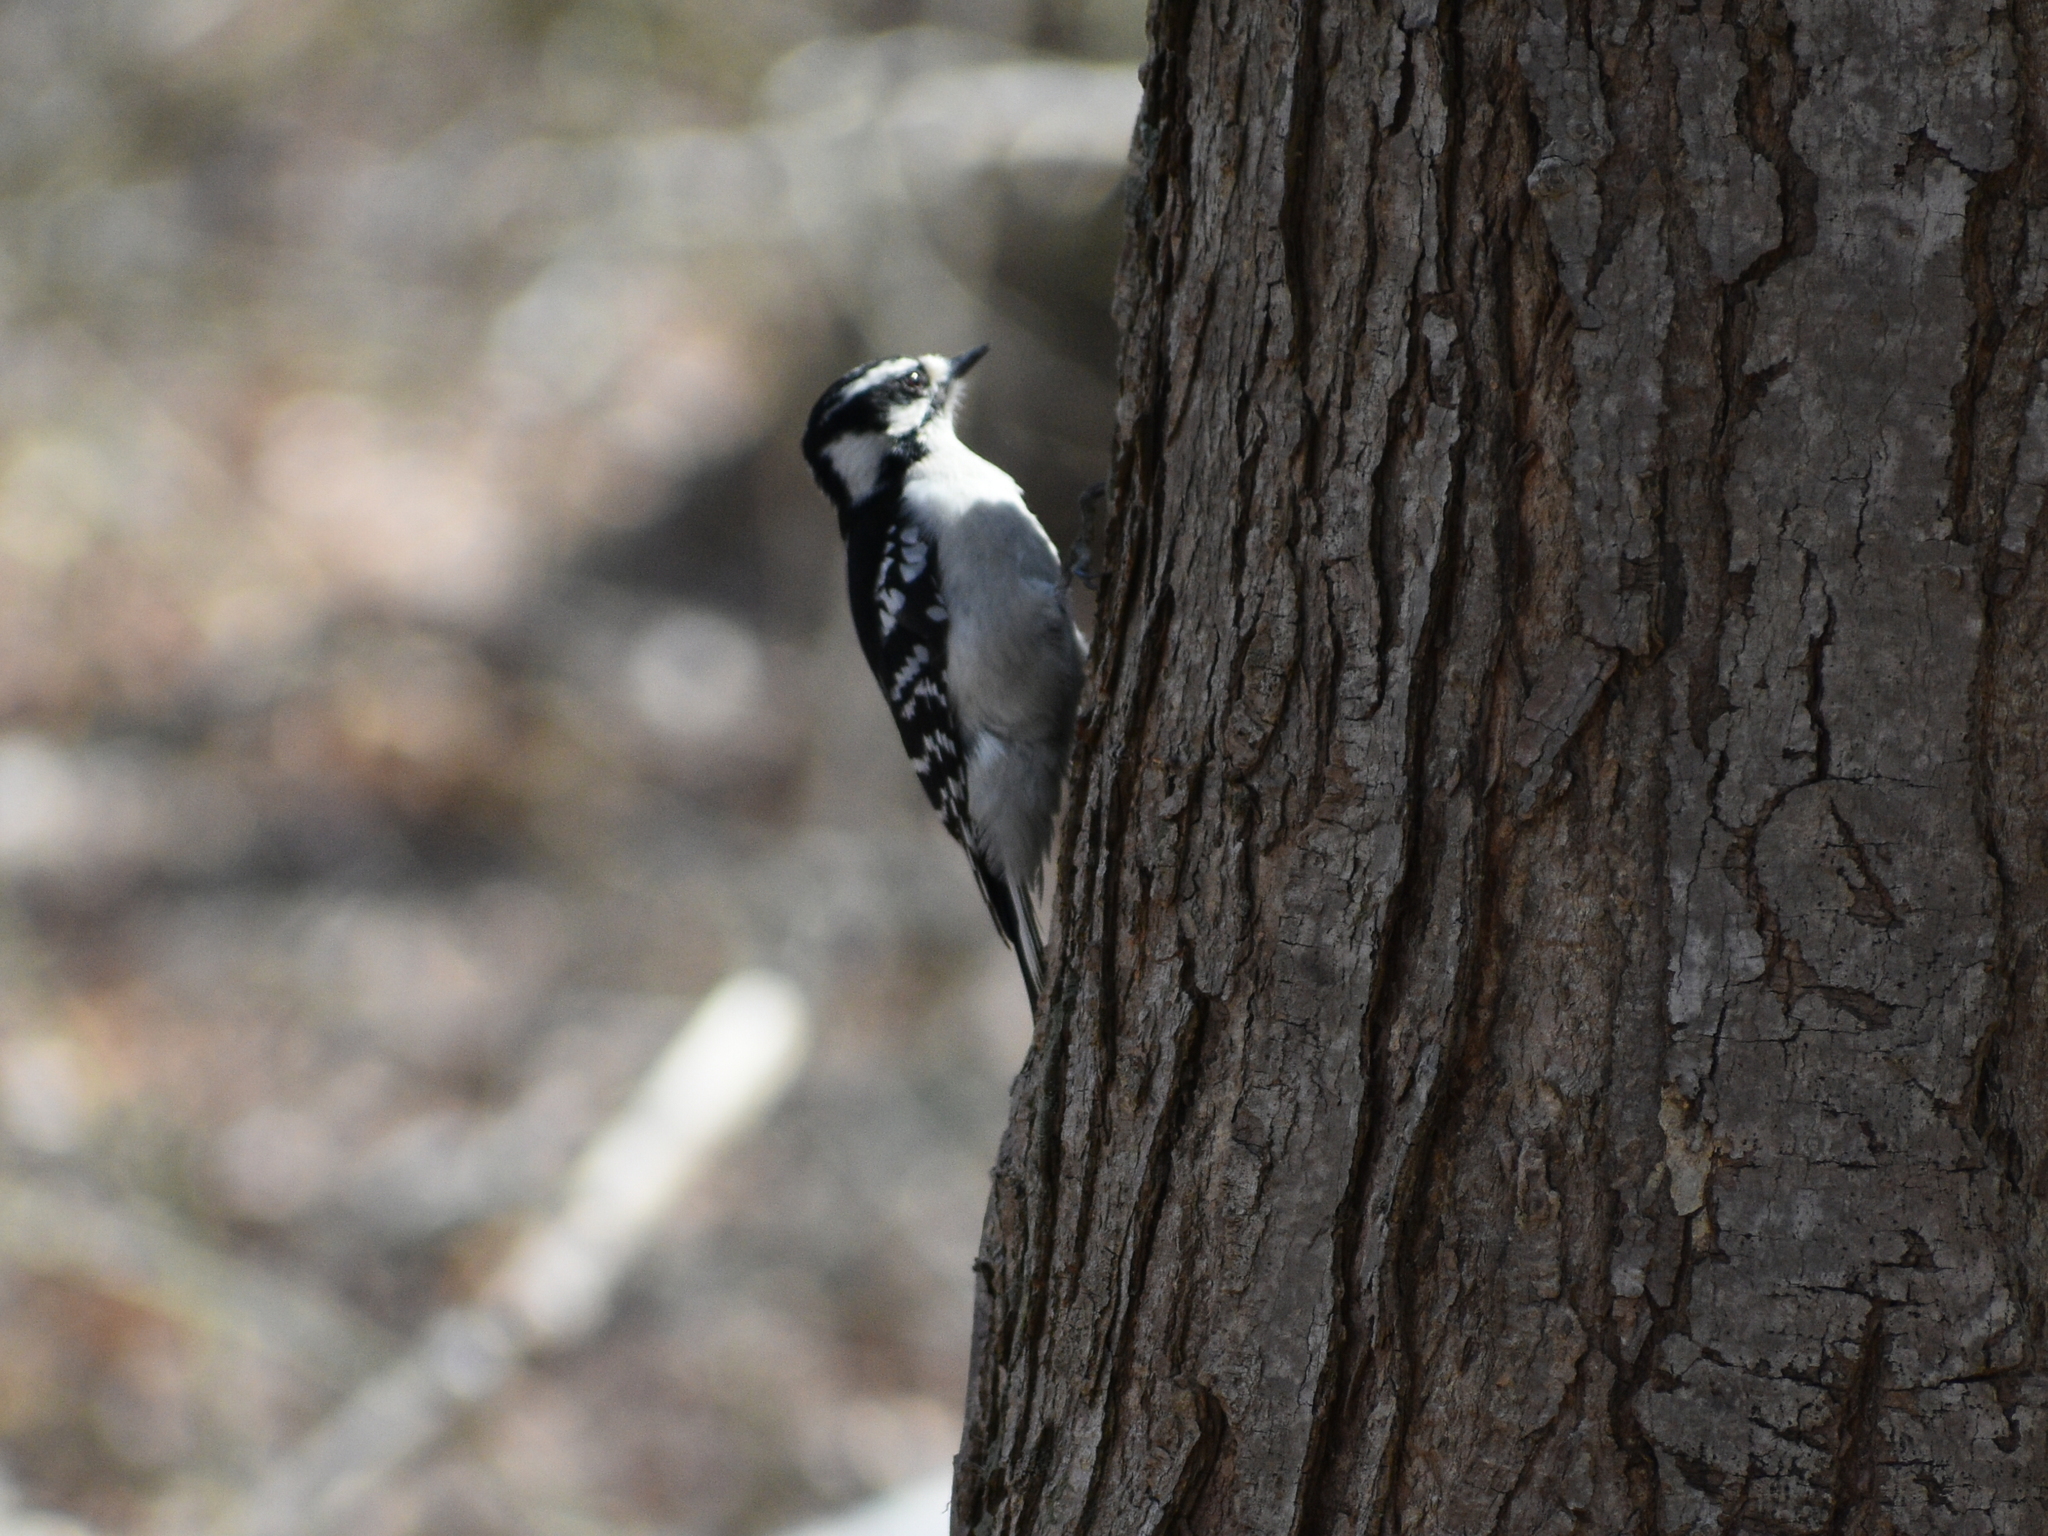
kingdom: Animalia
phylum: Chordata
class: Aves
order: Piciformes
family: Picidae
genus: Dryobates
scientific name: Dryobates pubescens
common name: Downy woodpecker
